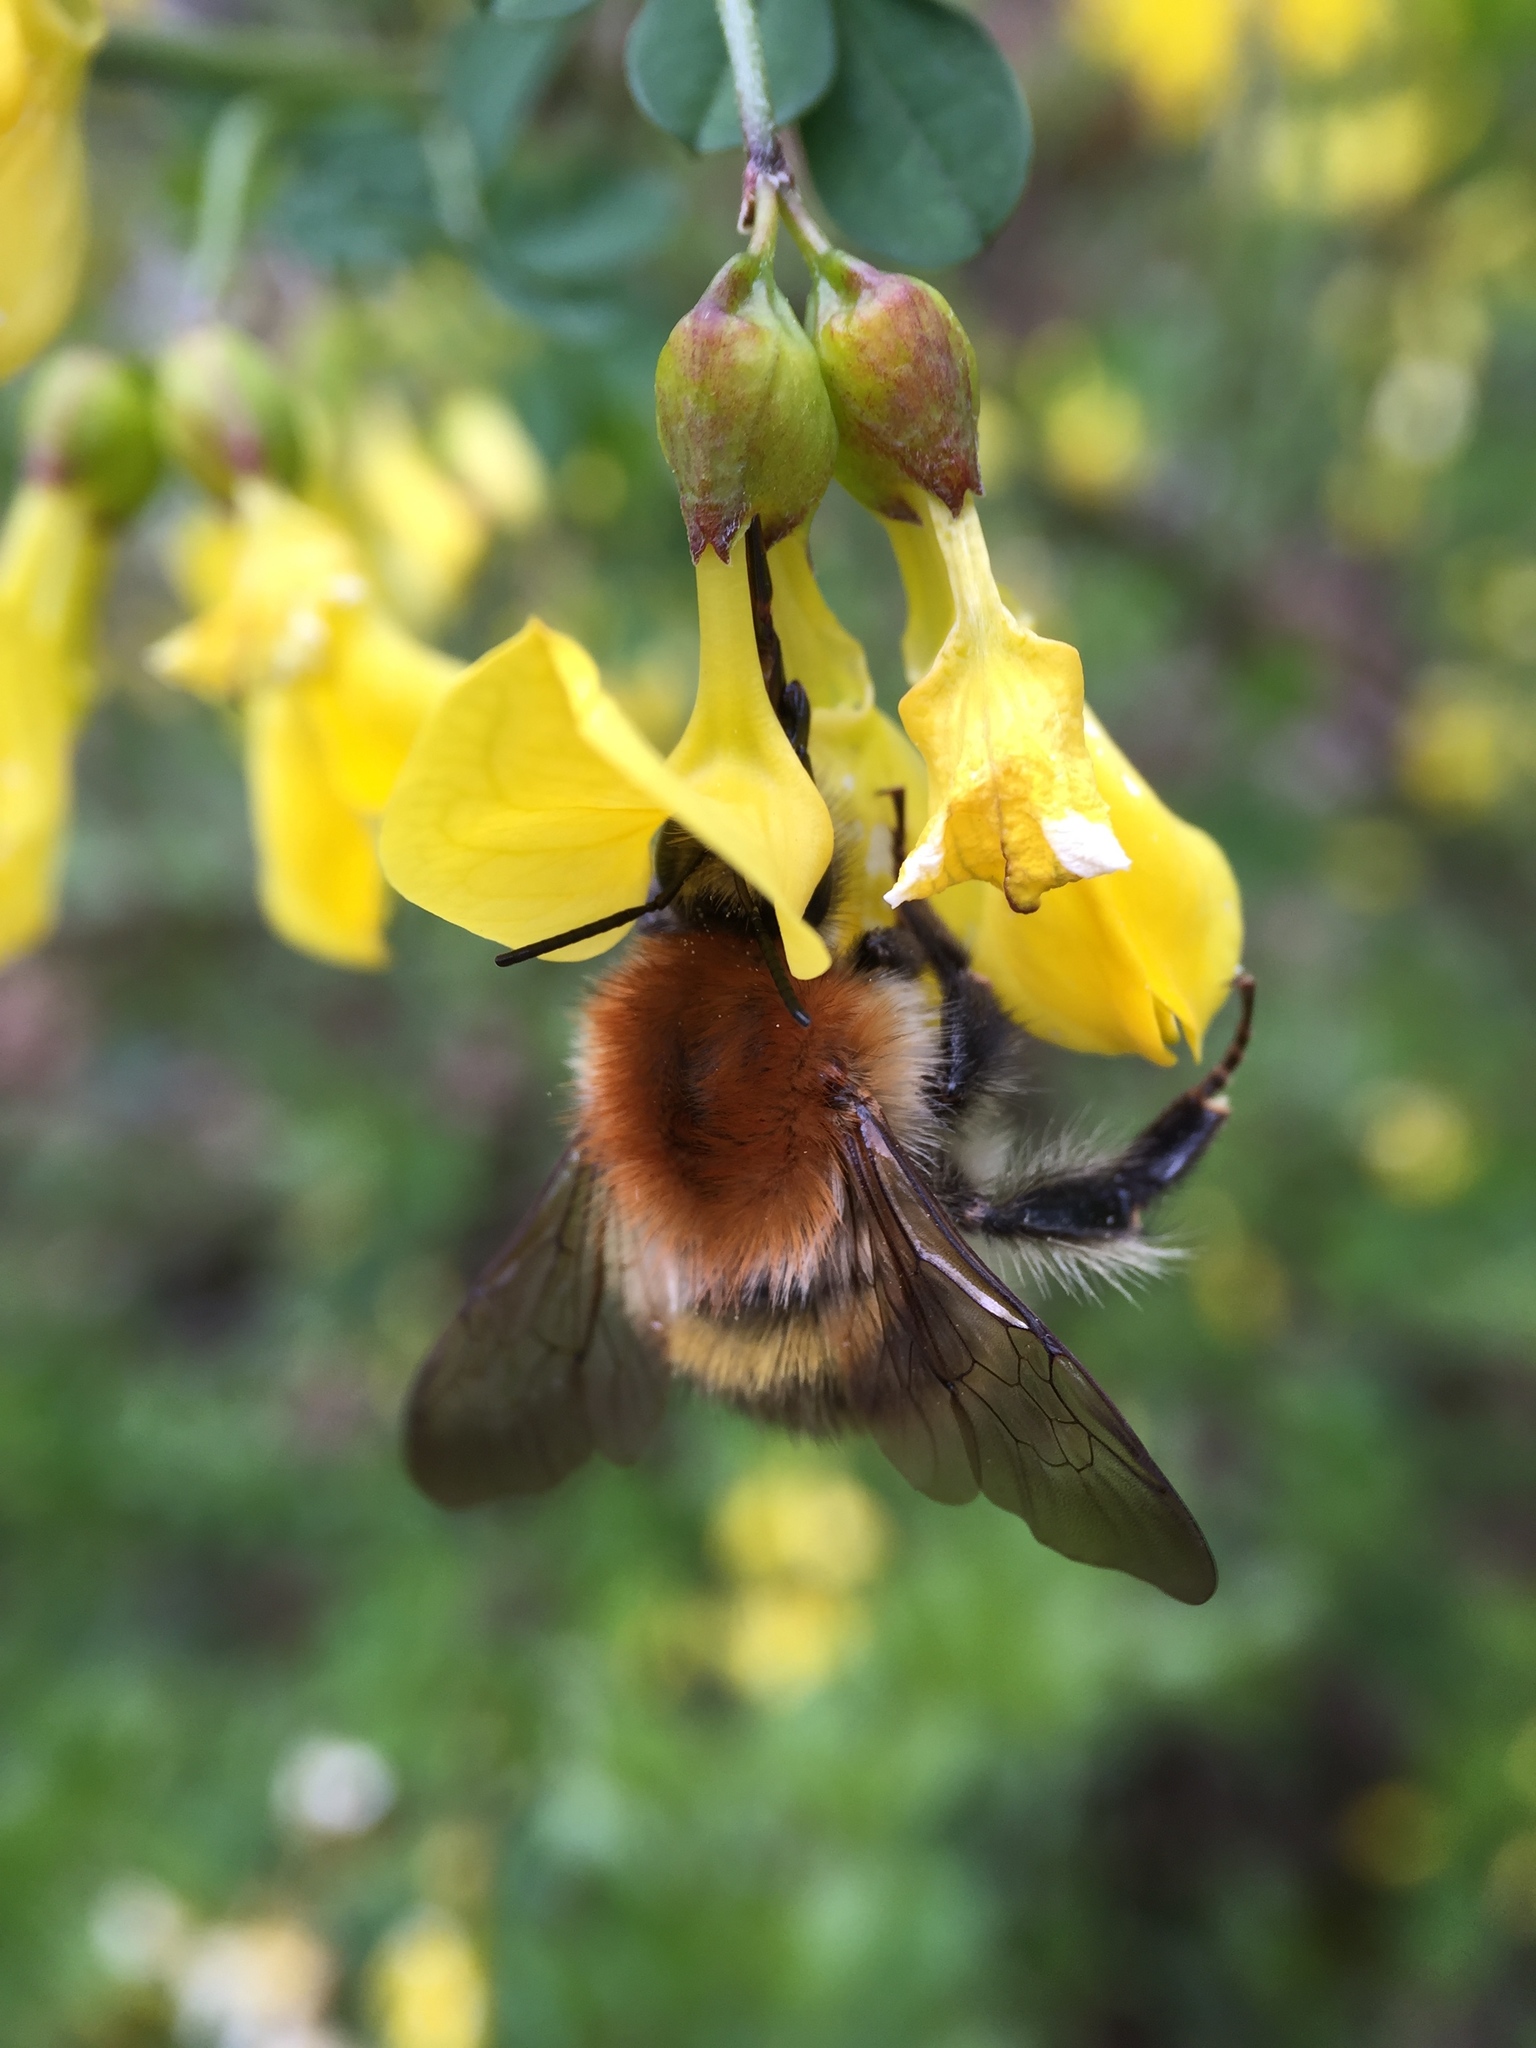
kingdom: Animalia
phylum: Arthropoda
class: Insecta
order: Hymenoptera
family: Apidae
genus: Bombus
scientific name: Bombus pascuorum
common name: Common carder bee
